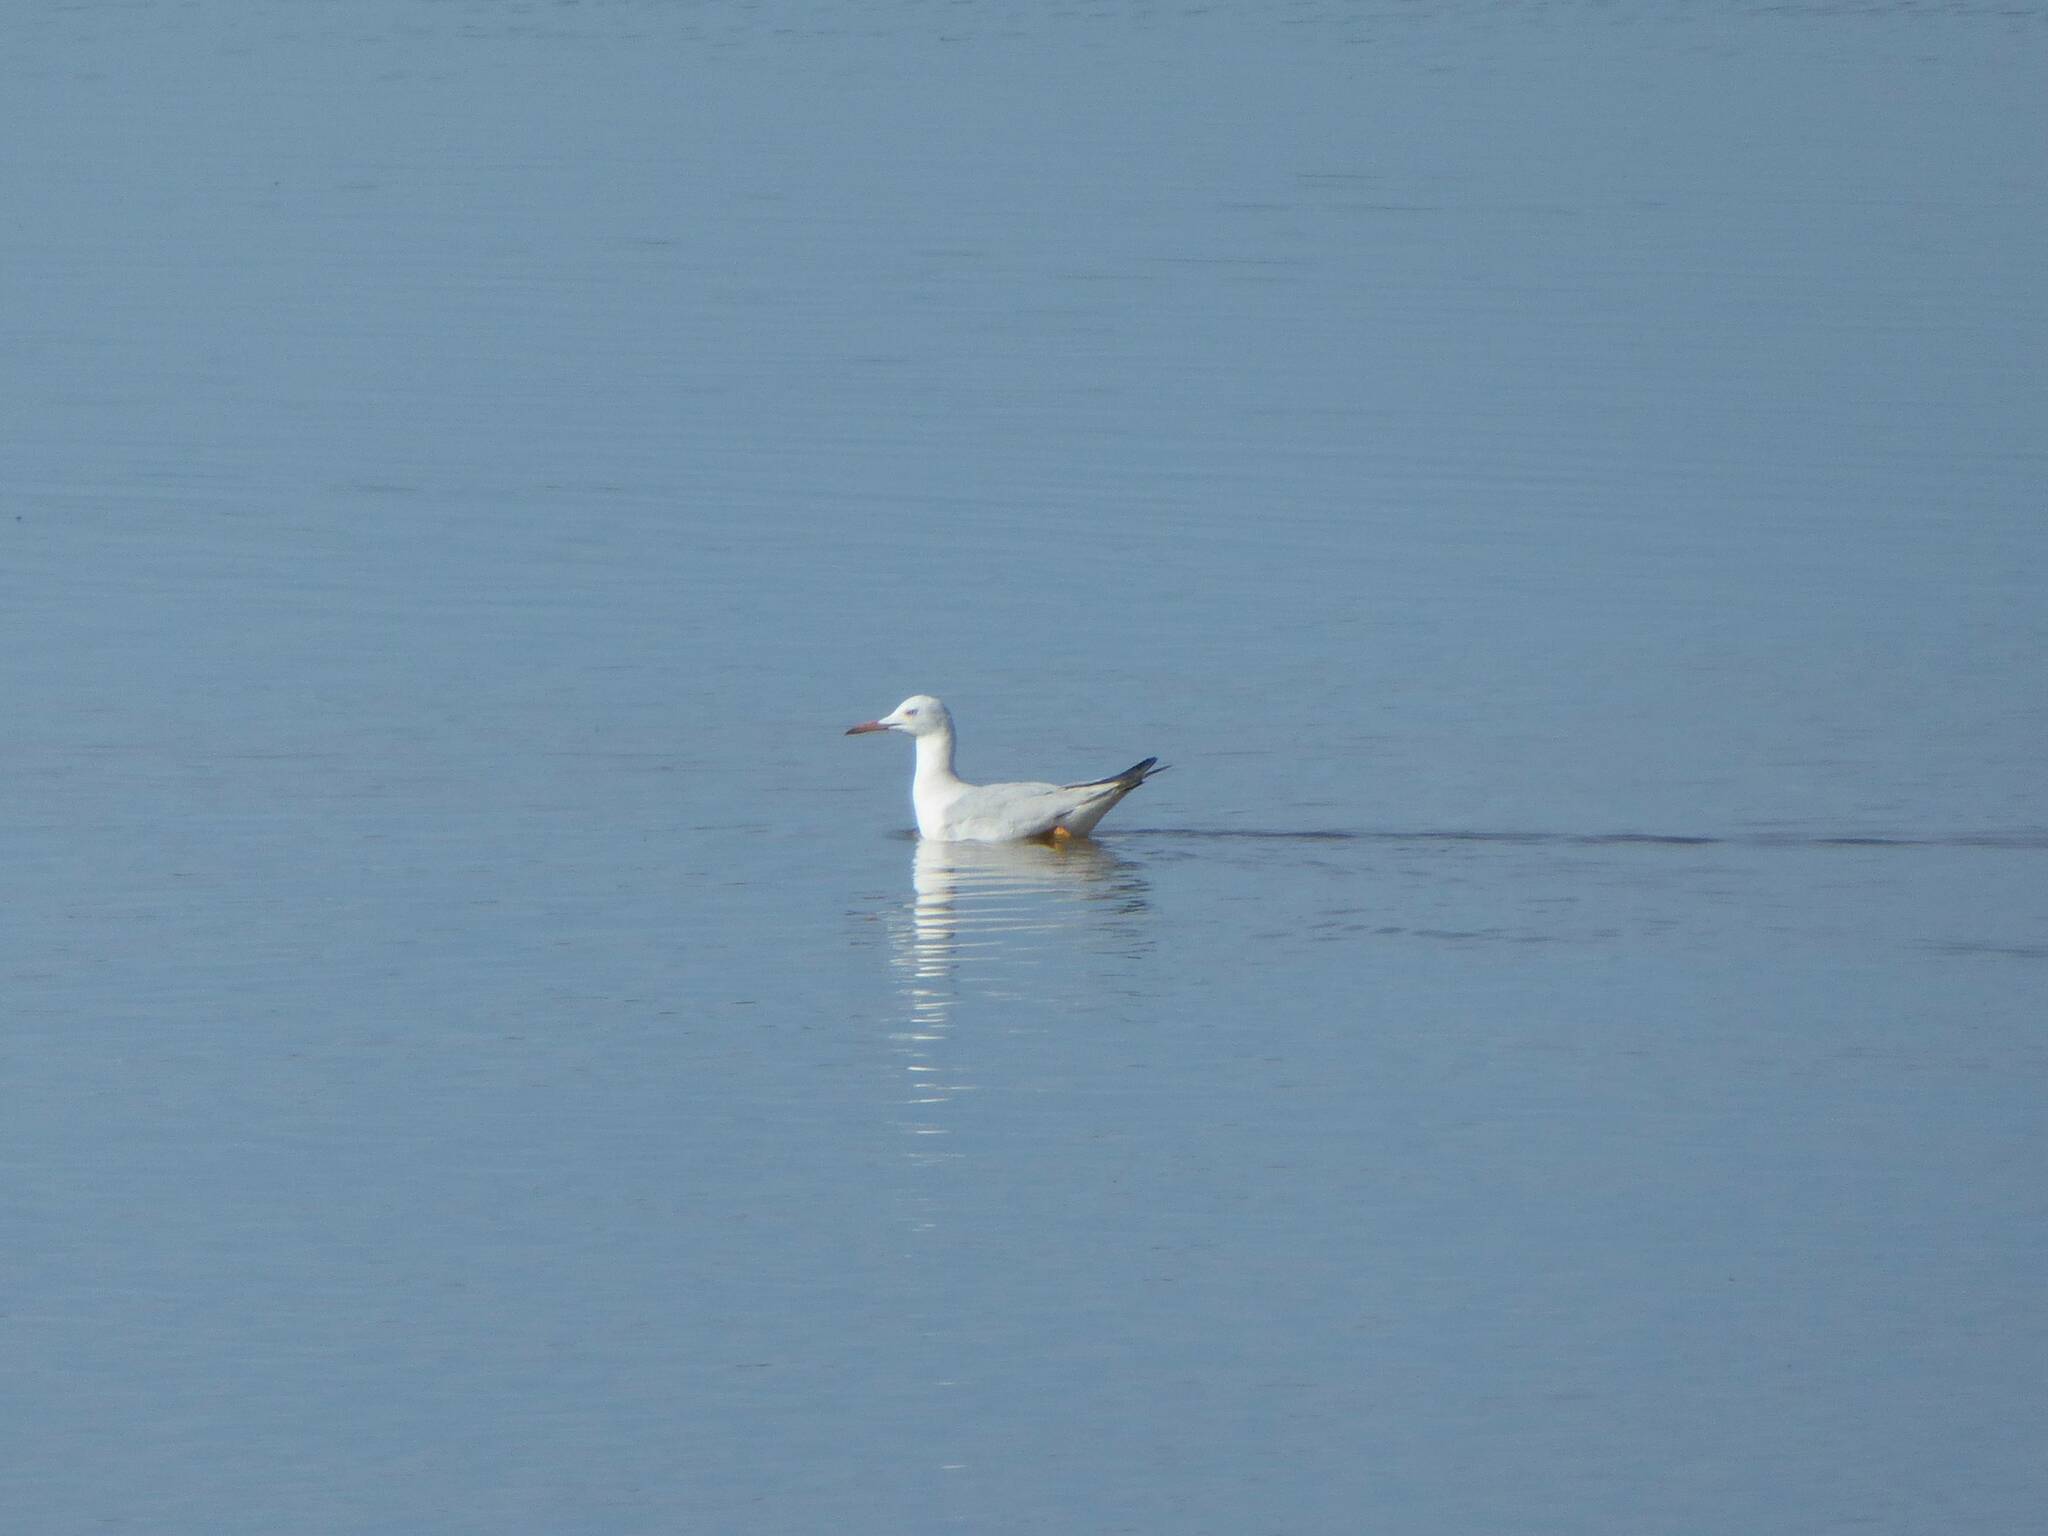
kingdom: Animalia
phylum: Chordata
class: Aves
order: Charadriiformes
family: Laridae
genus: Chroicocephalus
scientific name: Chroicocephalus genei
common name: Slender-billed gull
